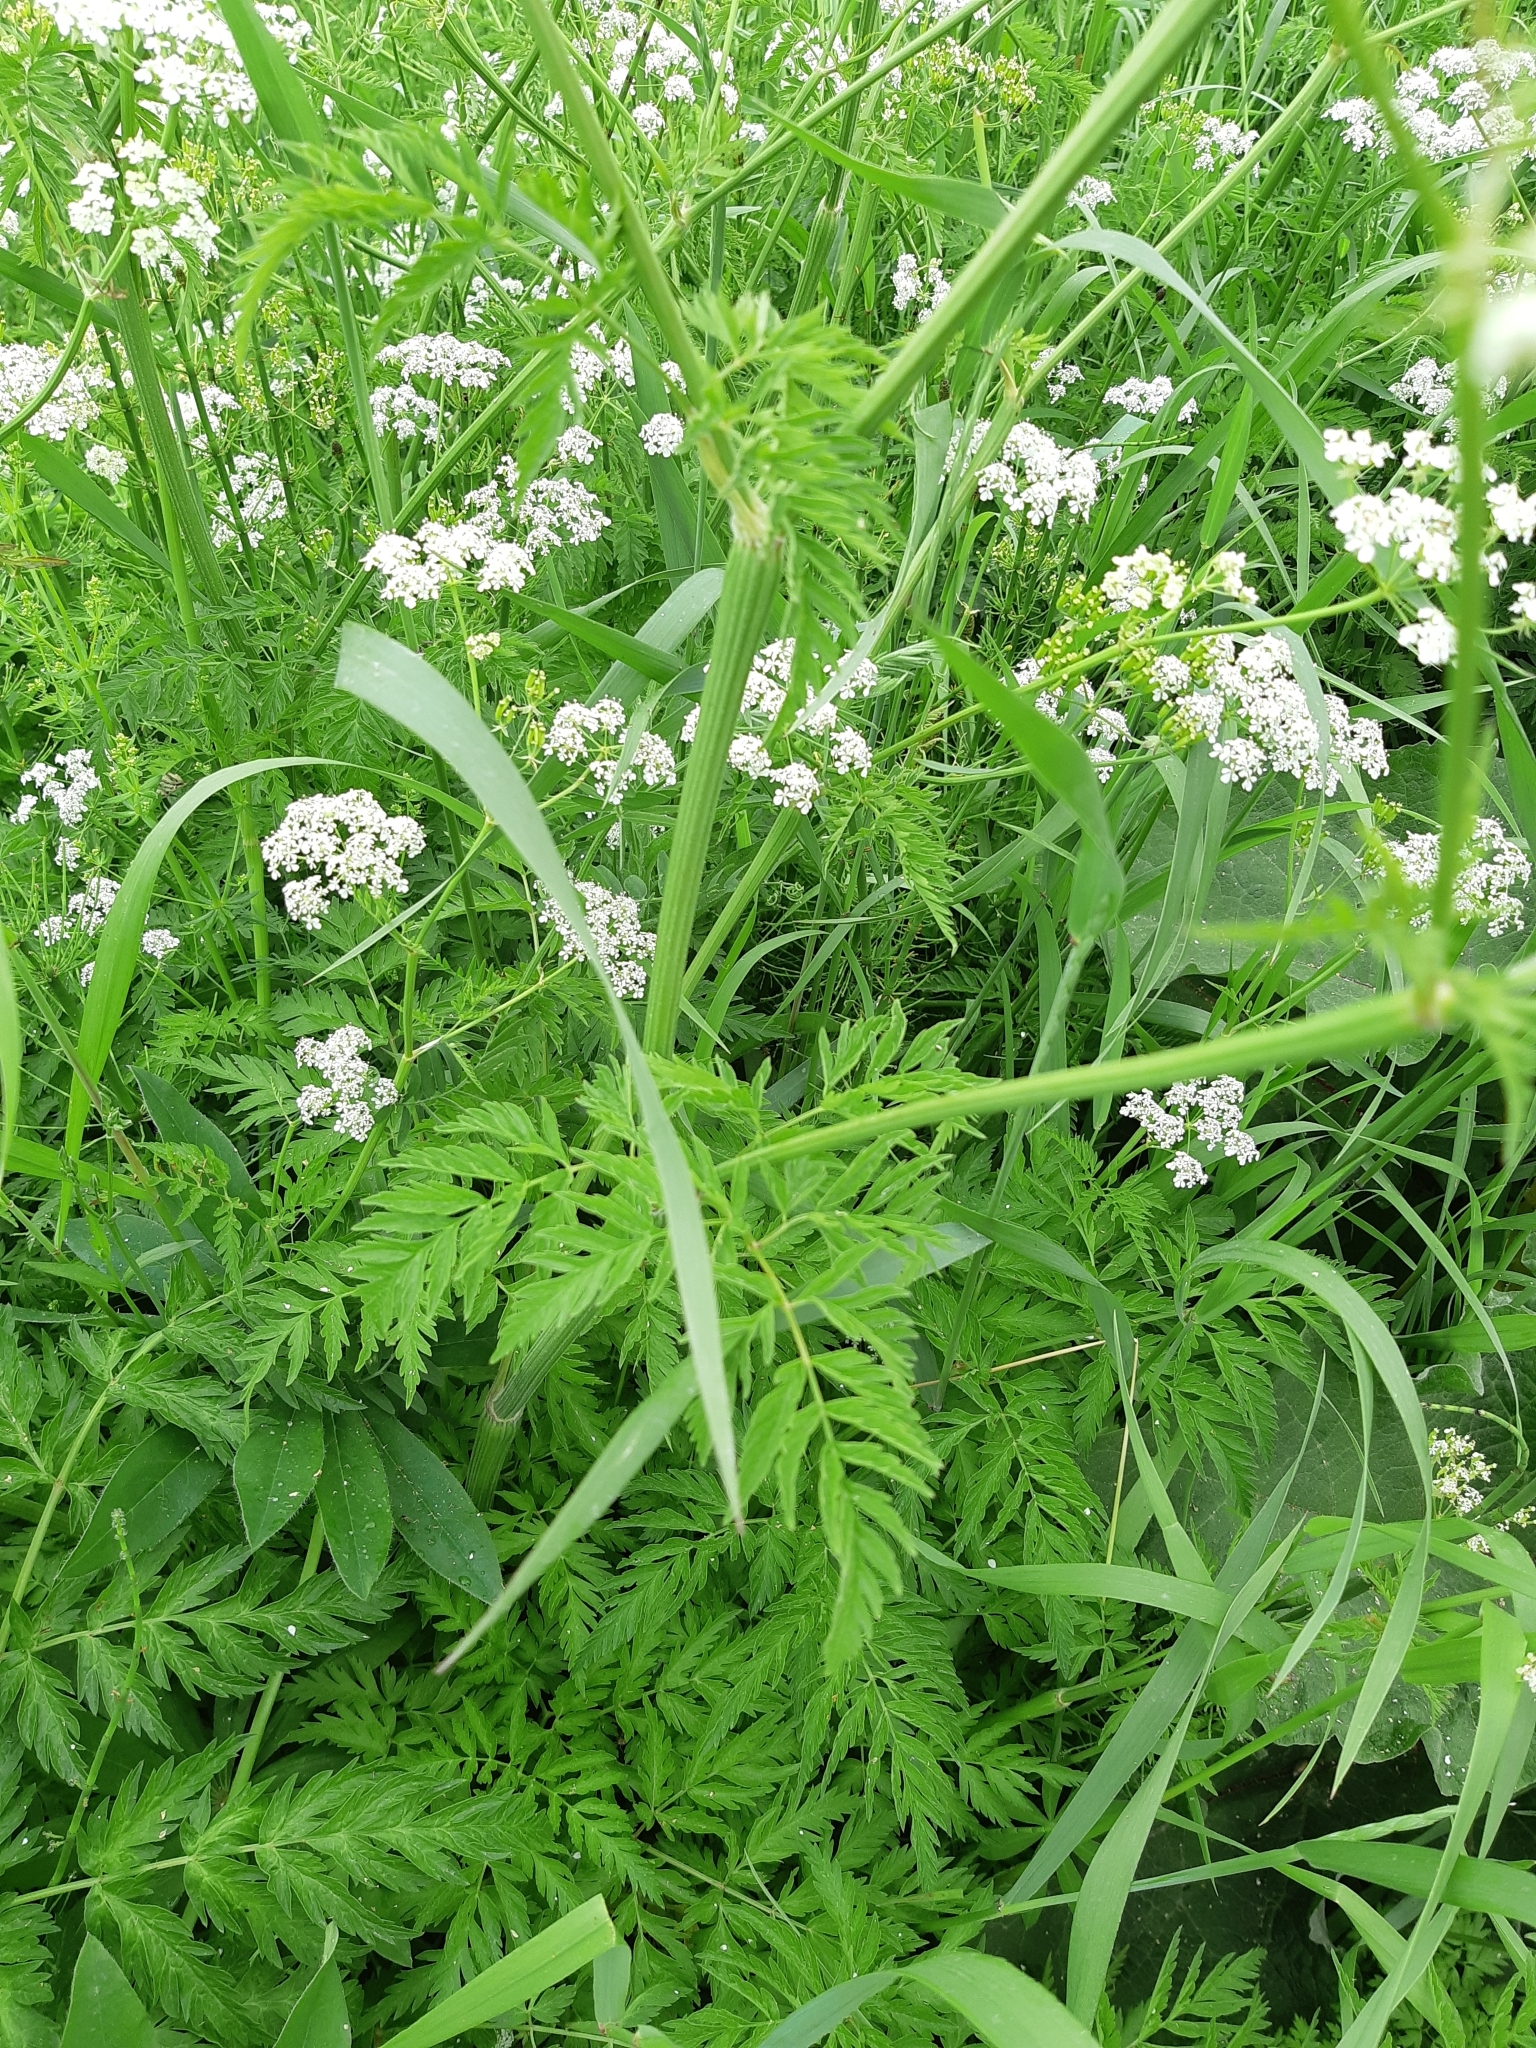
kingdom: Plantae
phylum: Tracheophyta
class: Magnoliopsida
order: Apiales
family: Apiaceae
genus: Anthriscus
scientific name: Anthriscus sylvestris
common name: Cow parsley
